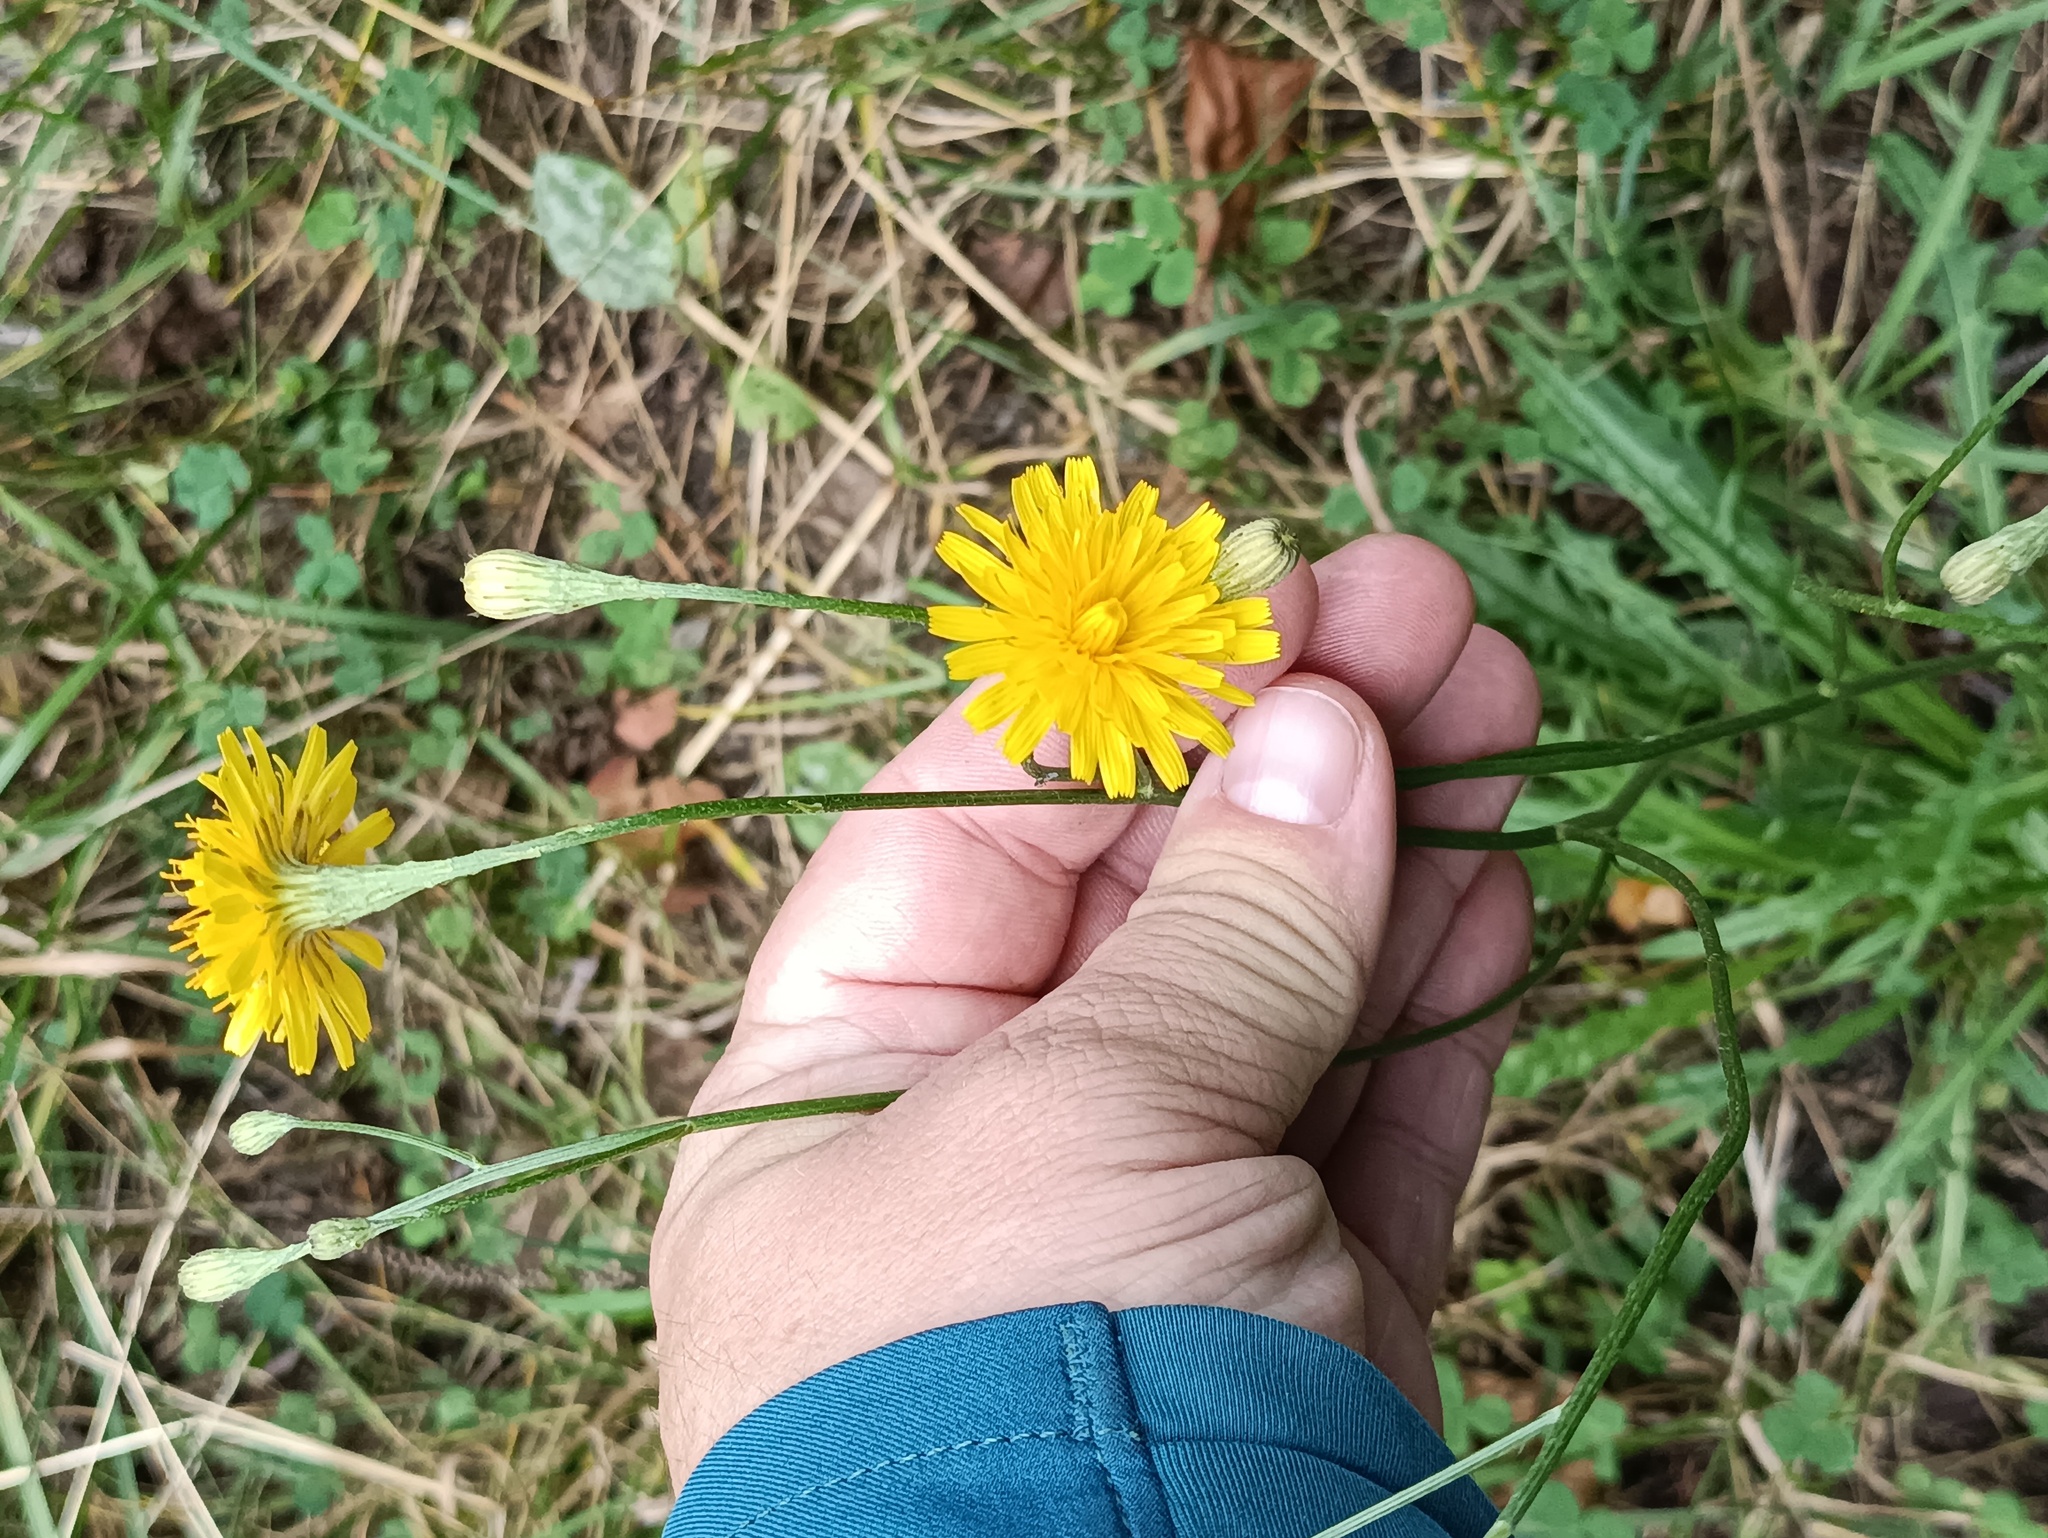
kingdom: Plantae
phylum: Tracheophyta
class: Magnoliopsida
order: Asterales
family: Asteraceae
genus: Scorzoneroides
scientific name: Scorzoneroides autumnalis
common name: Autumn hawkbit
